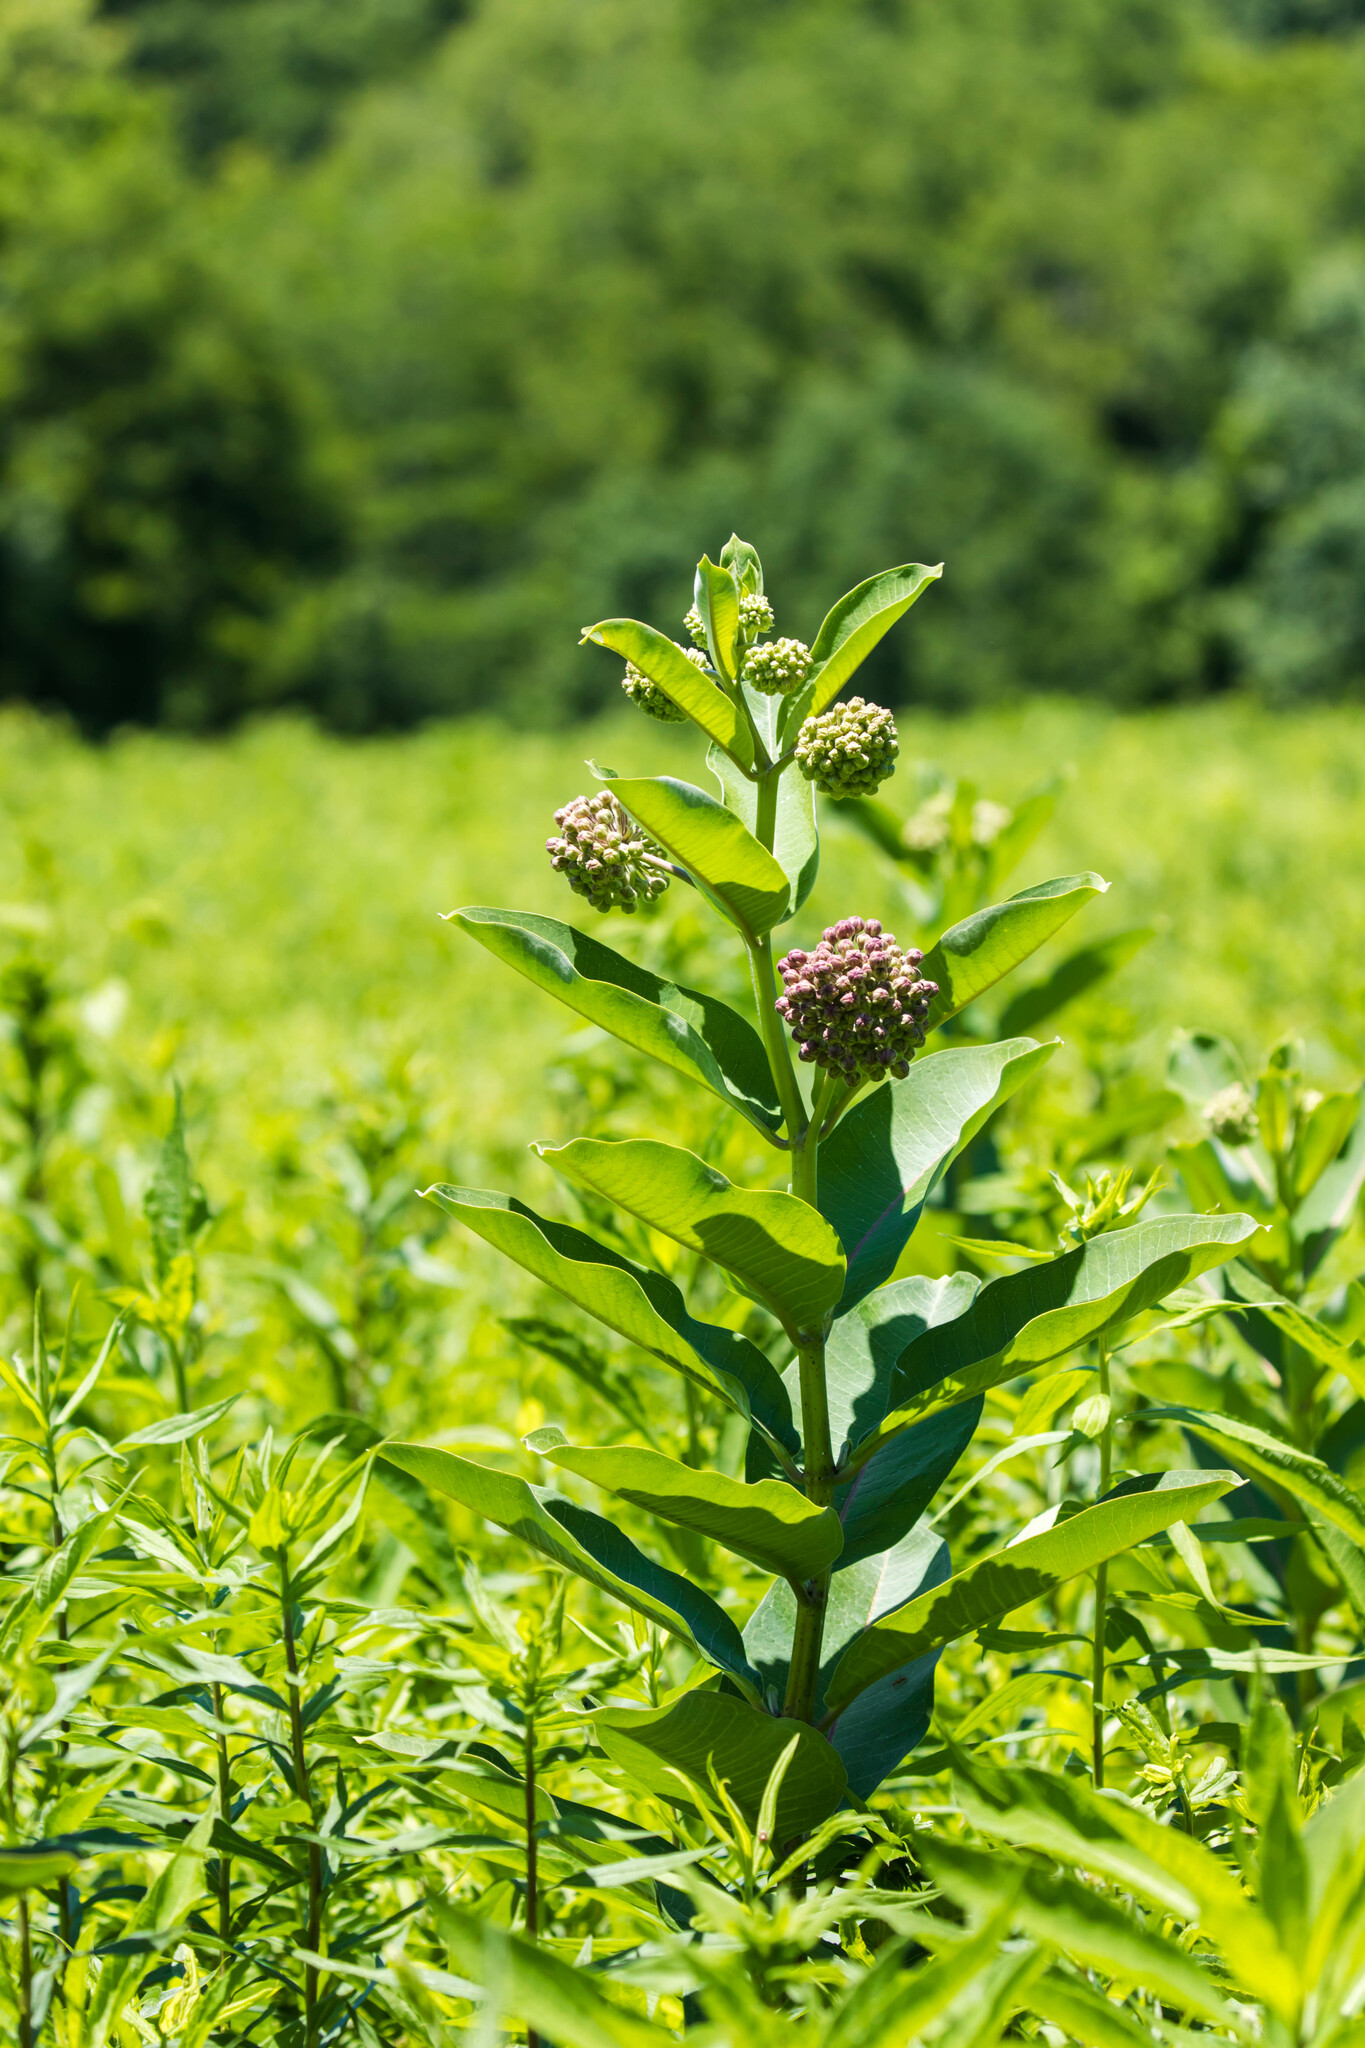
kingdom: Plantae
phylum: Tracheophyta
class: Magnoliopsida
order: Gentianales
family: Apocynaceae
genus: Asclepias
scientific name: Asclepias syriaca
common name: Common milkweed
